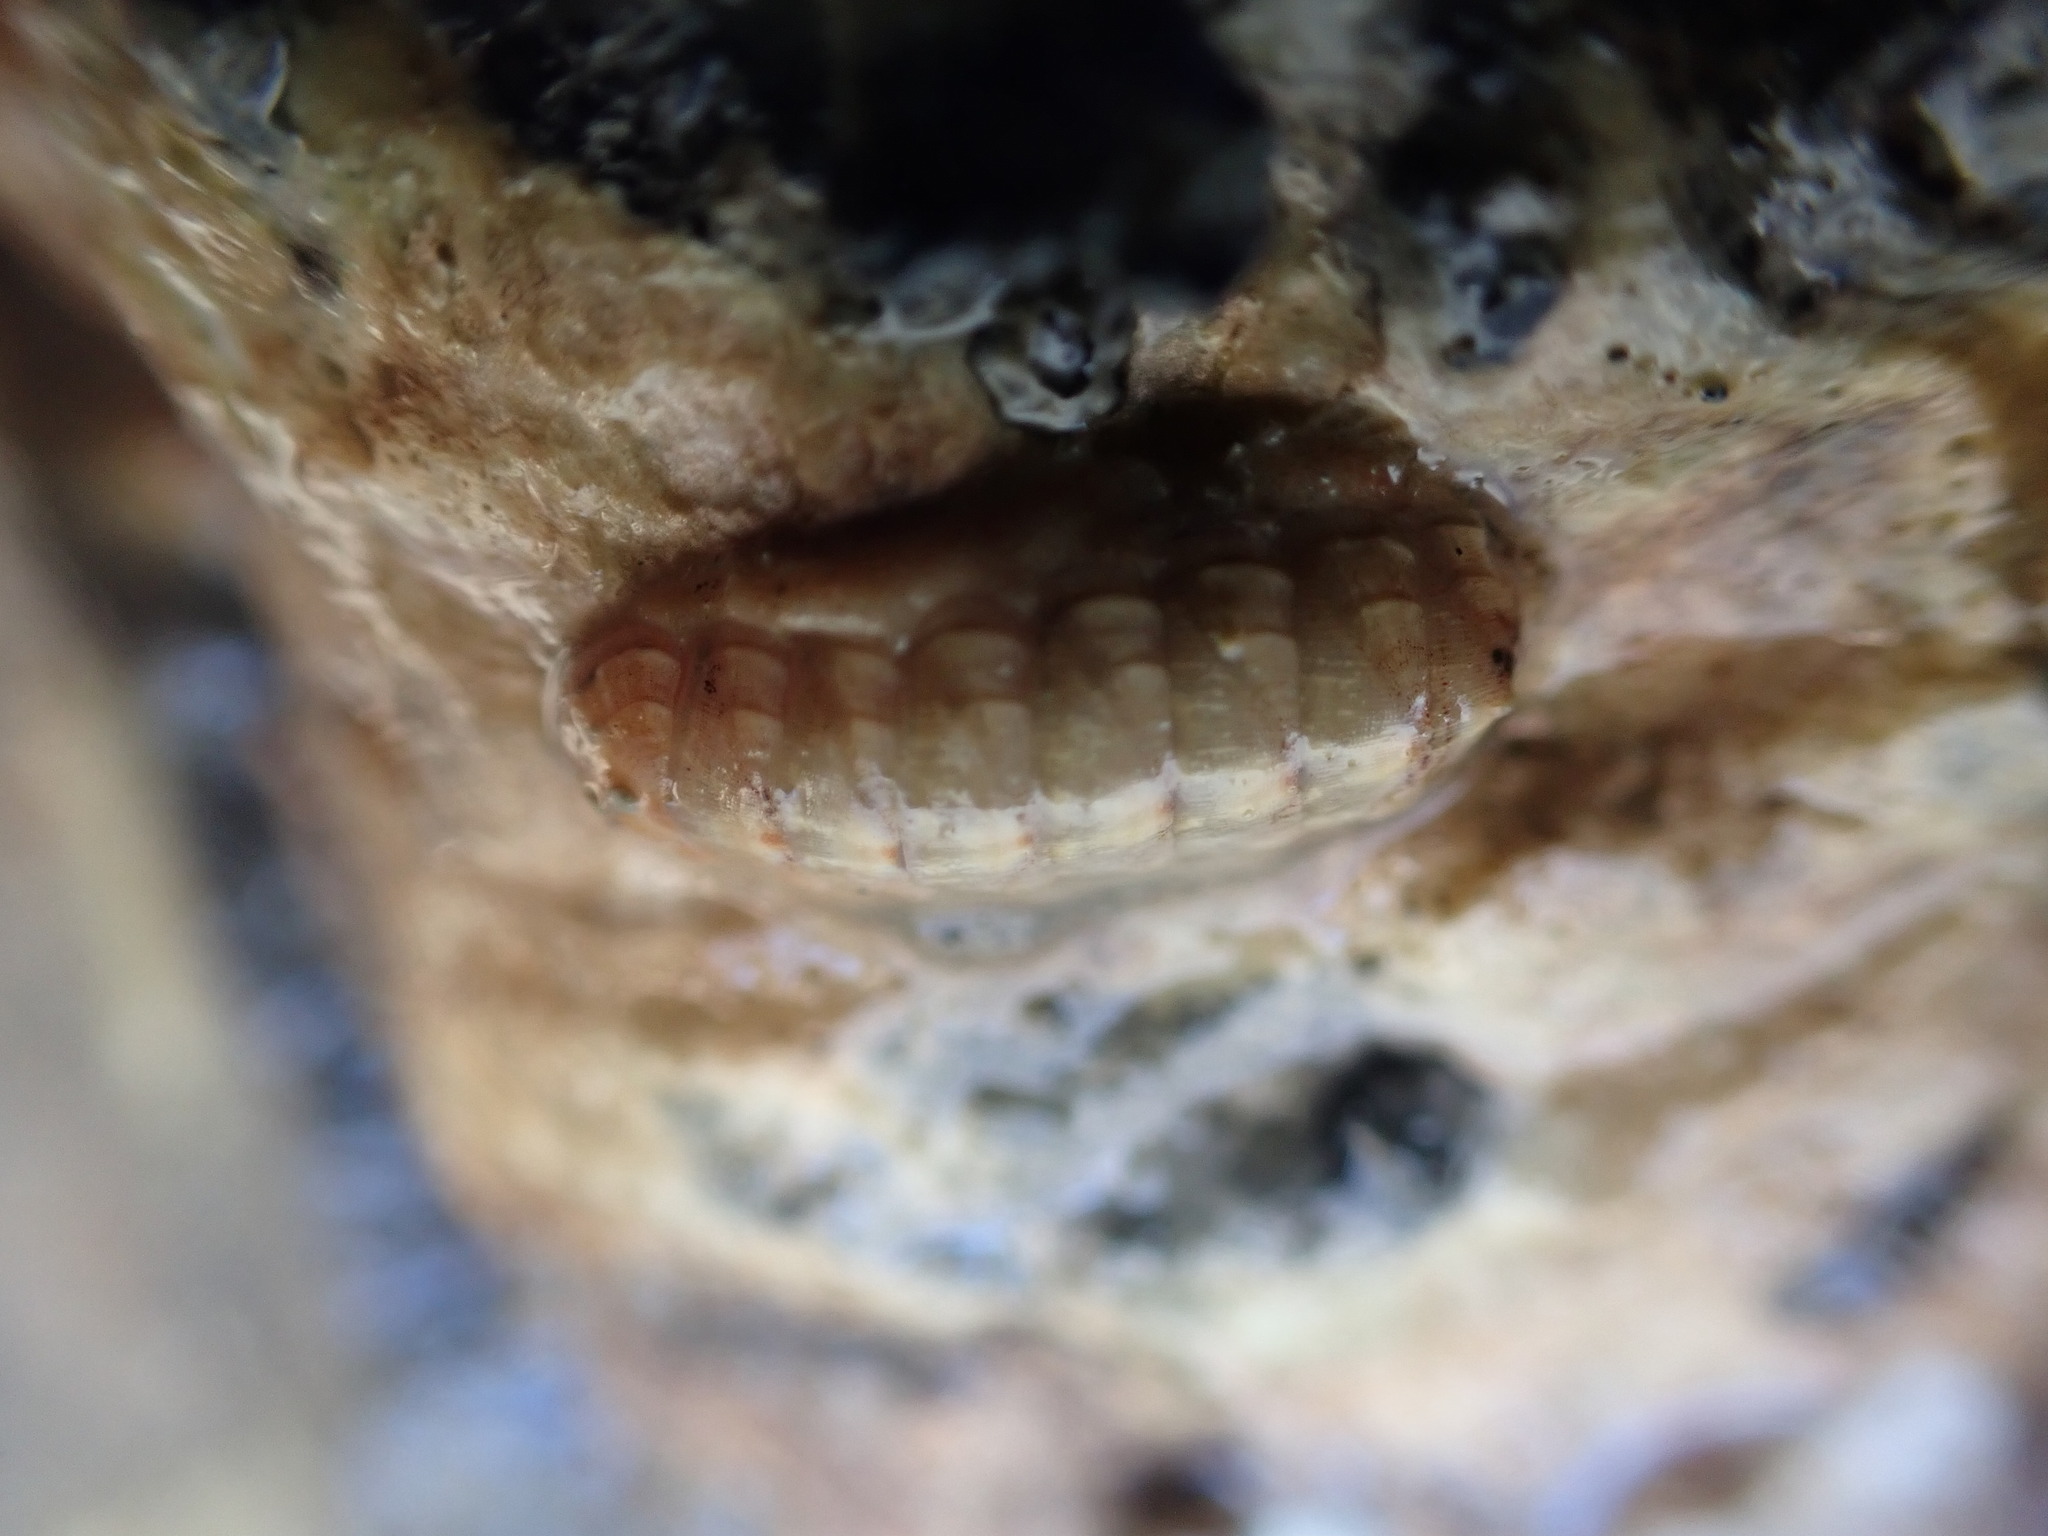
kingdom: Animalia
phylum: Mollusca
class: Polyplacophora
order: Lepidopleurida
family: Leptochitonidae
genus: Leptochiton
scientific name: Leptochiton inquinatus
